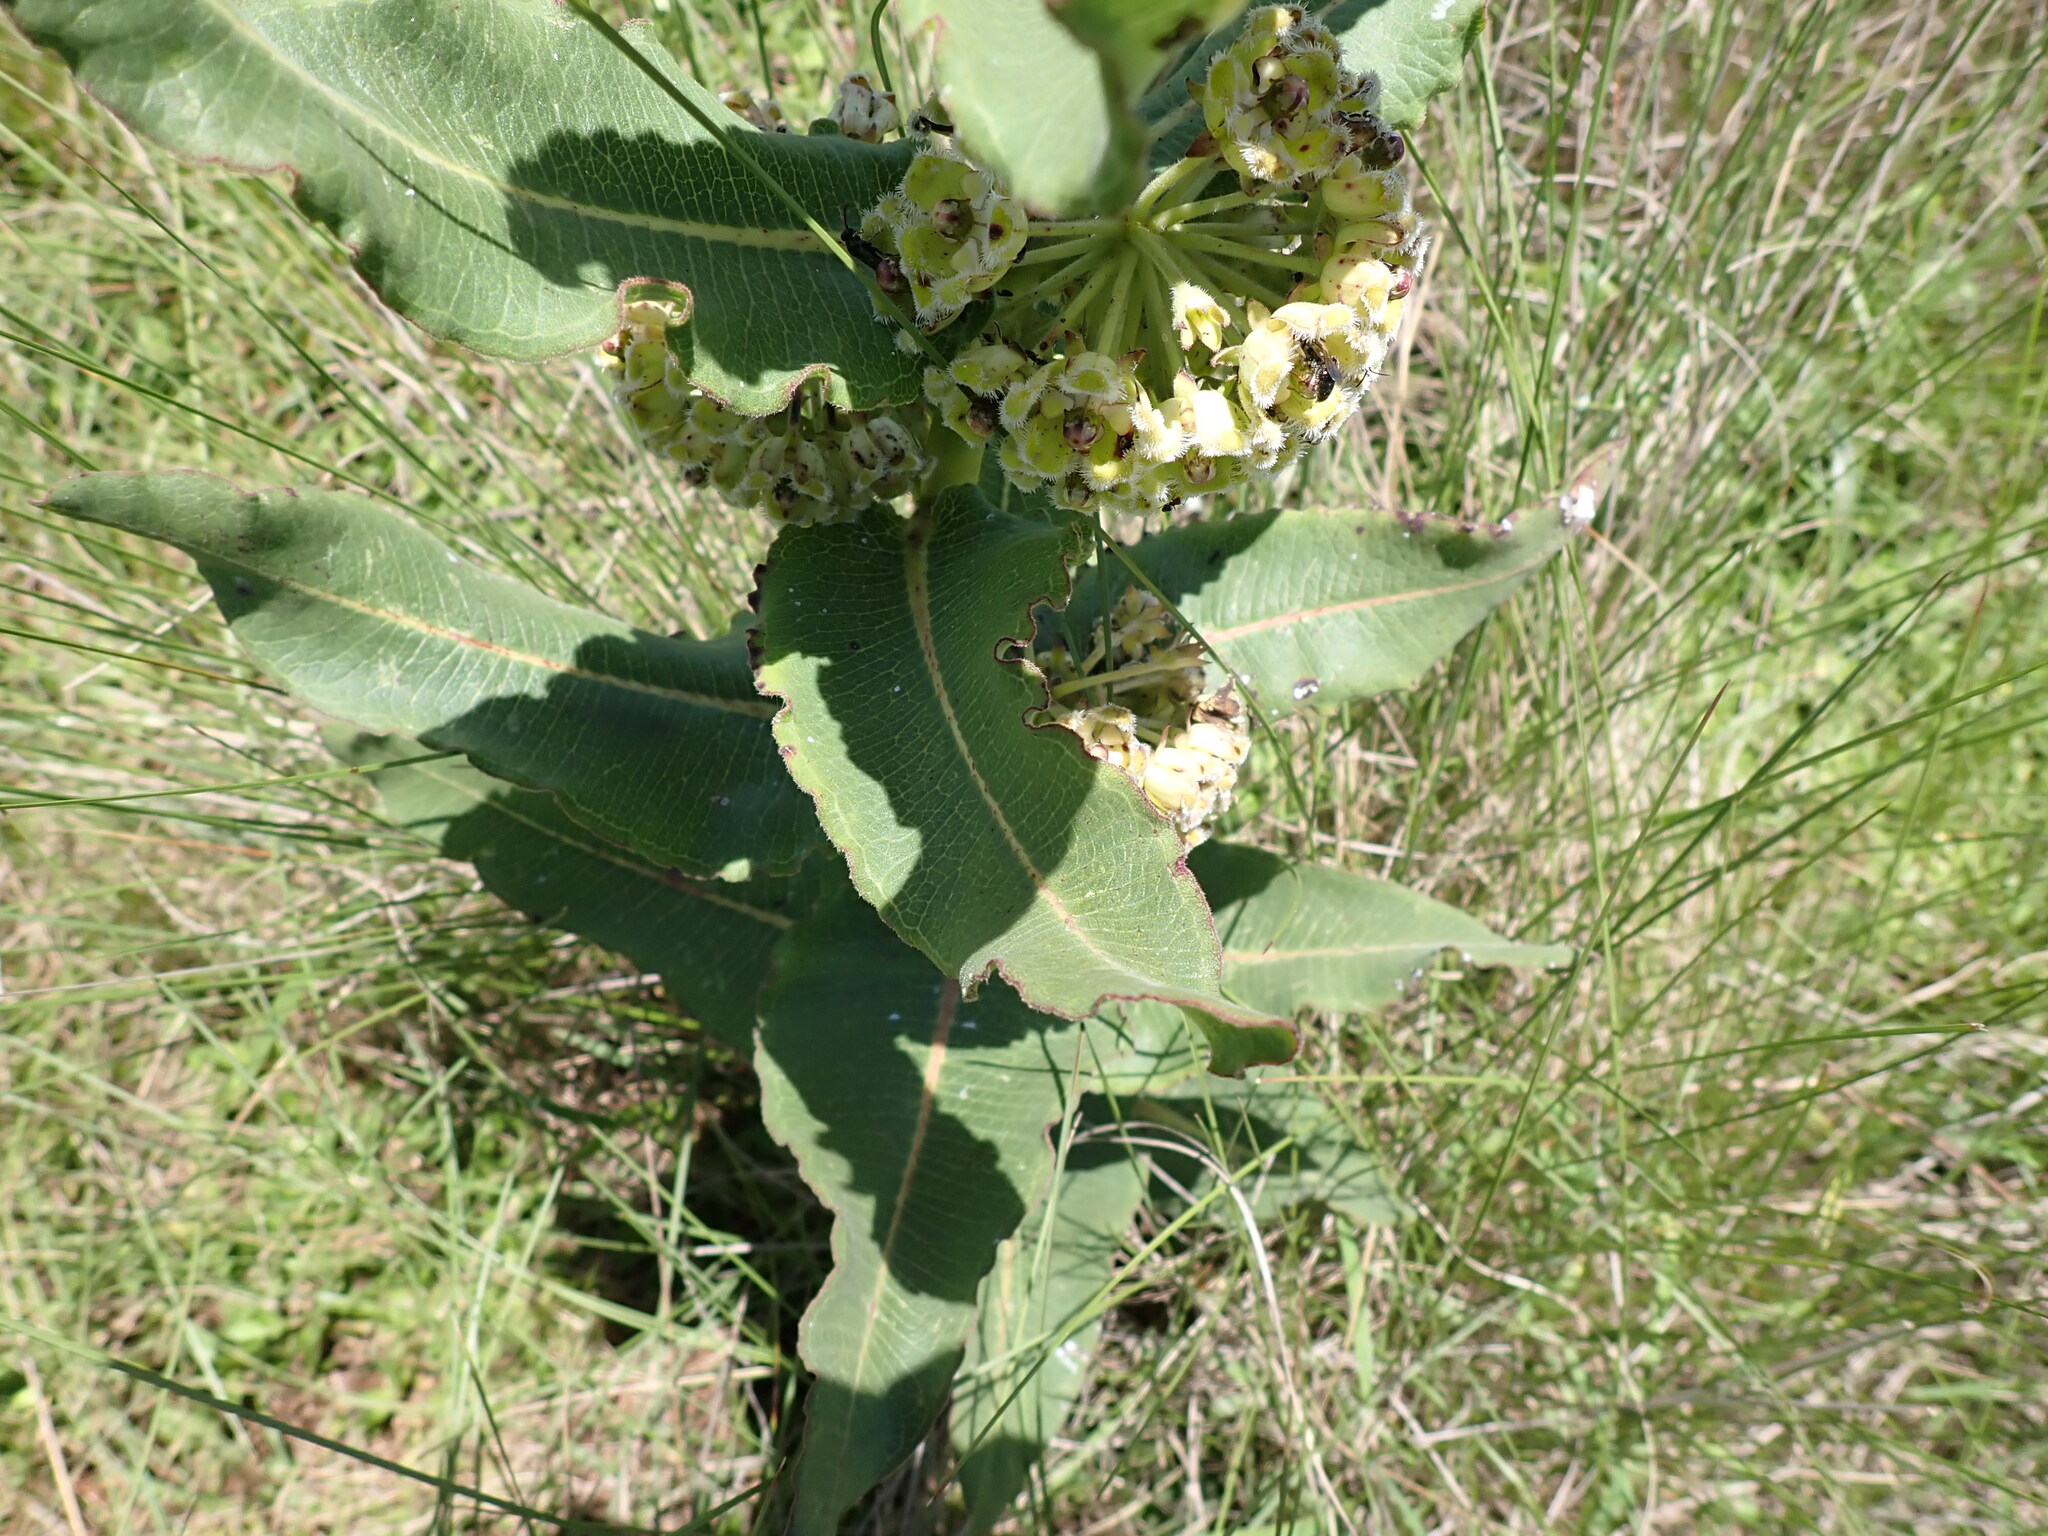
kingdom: Plantae
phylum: Tracheophyta
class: Magnoliopsida
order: Gentianales
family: Apocynaceae
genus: Xysmalobium
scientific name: Xysmalobium undulatum
